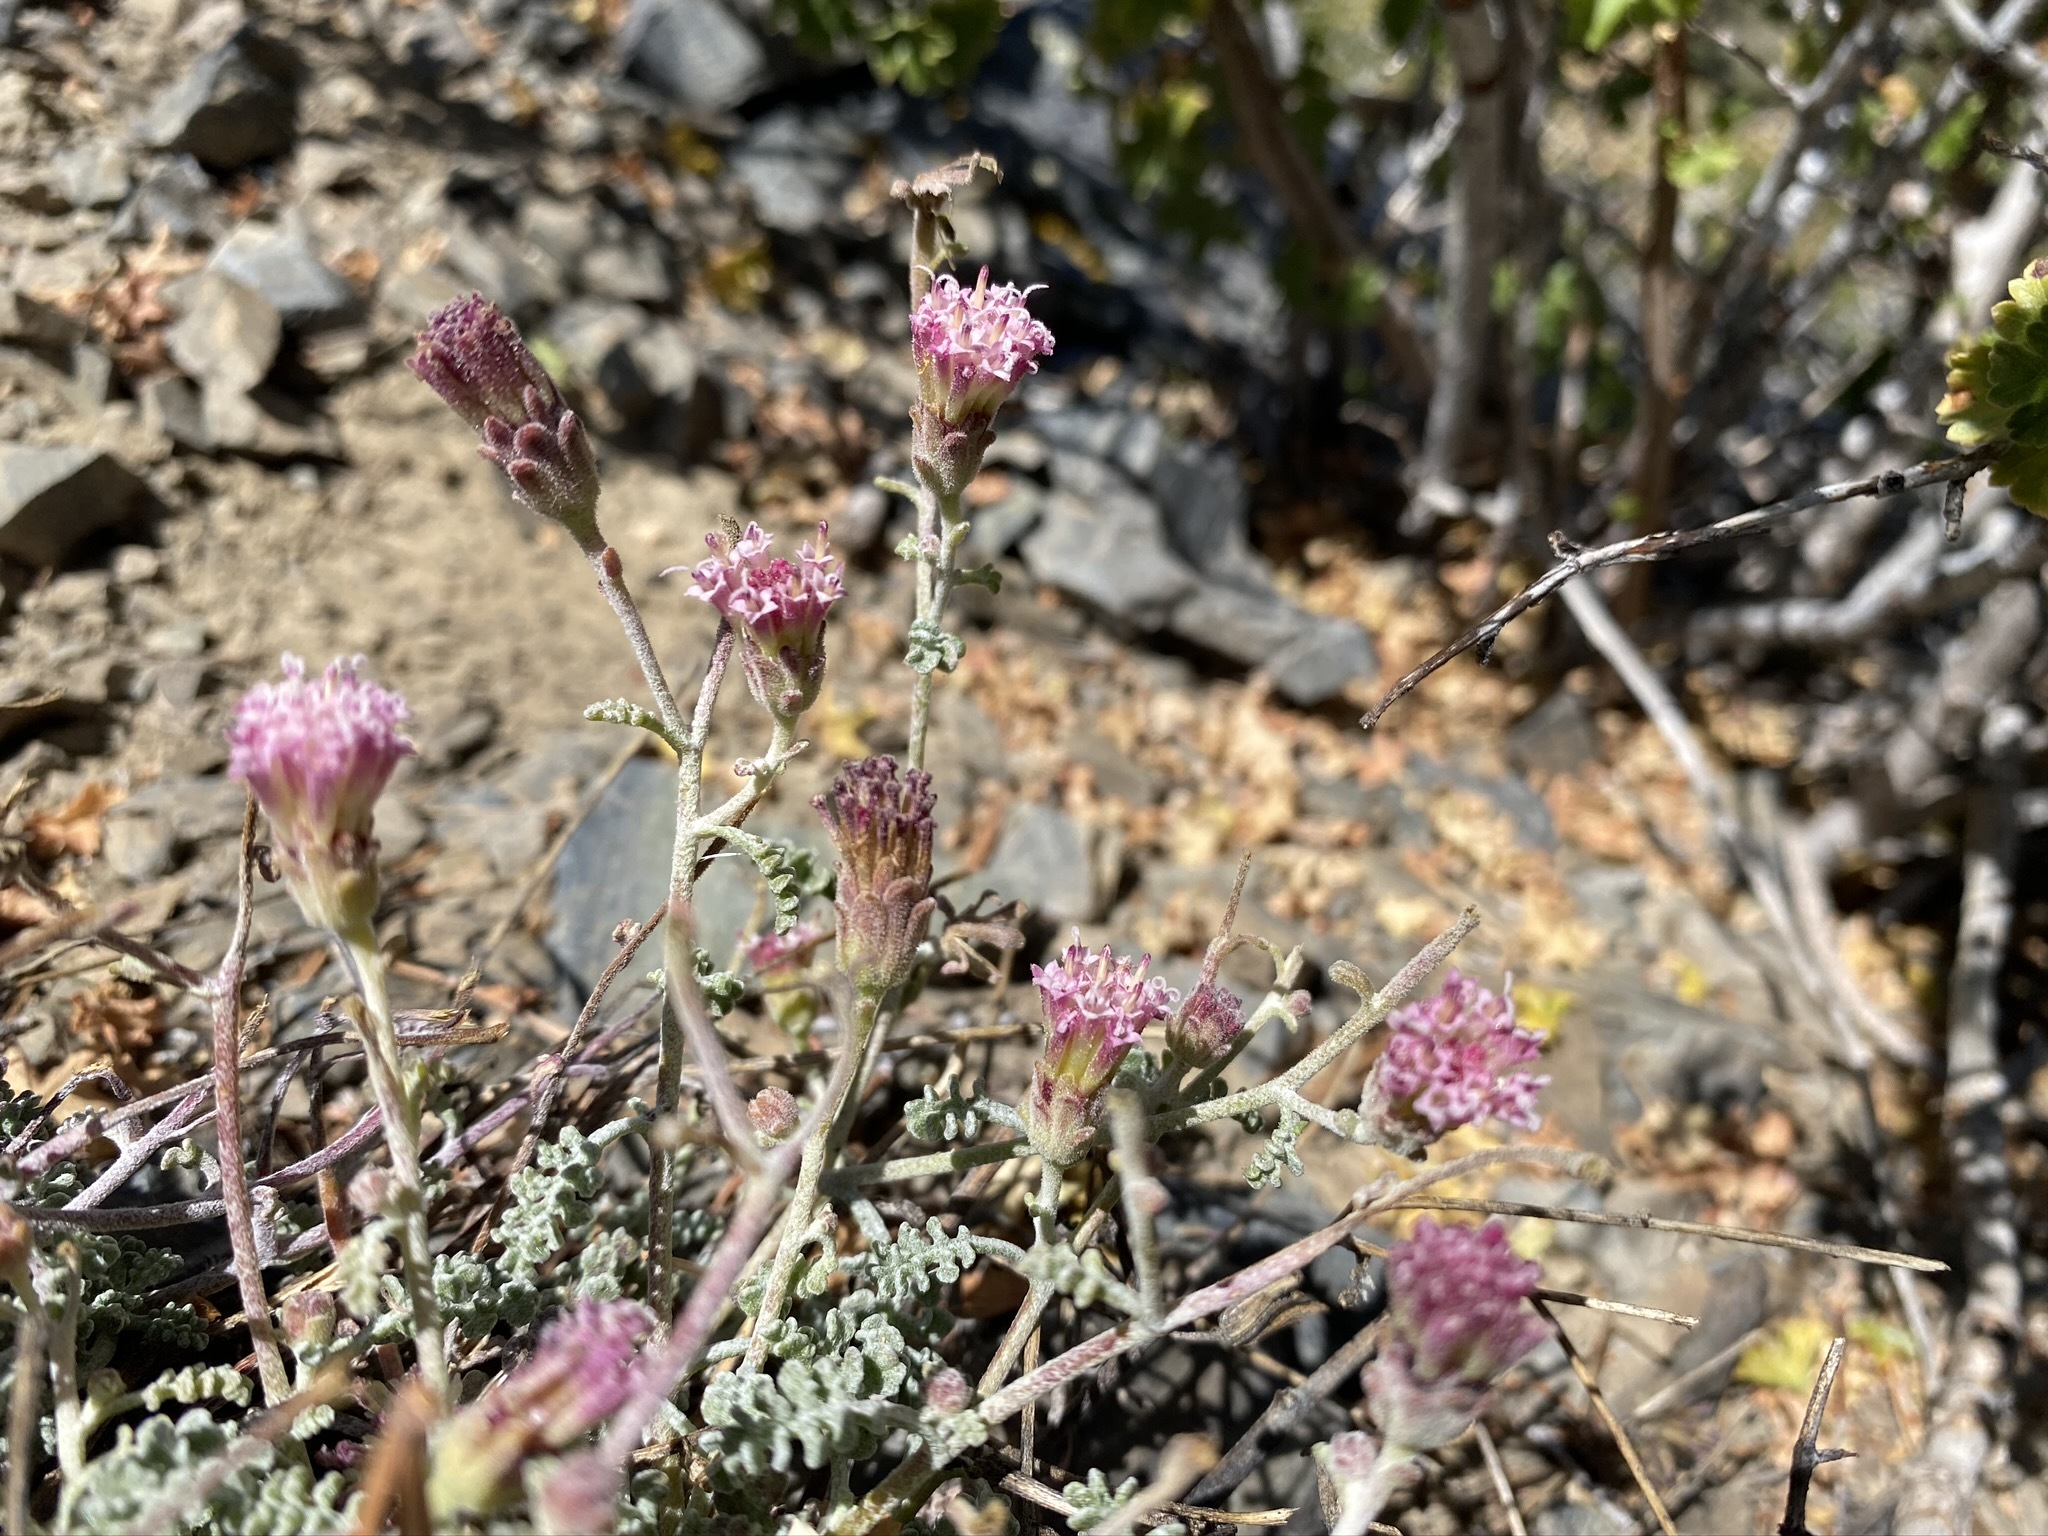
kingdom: Plantae
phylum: Tracheophyta
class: Magnoliopsida
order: Asterales
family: Asteraceae
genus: Chaenactis
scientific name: Chaenactis douglasii
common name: Hoary pincushion
